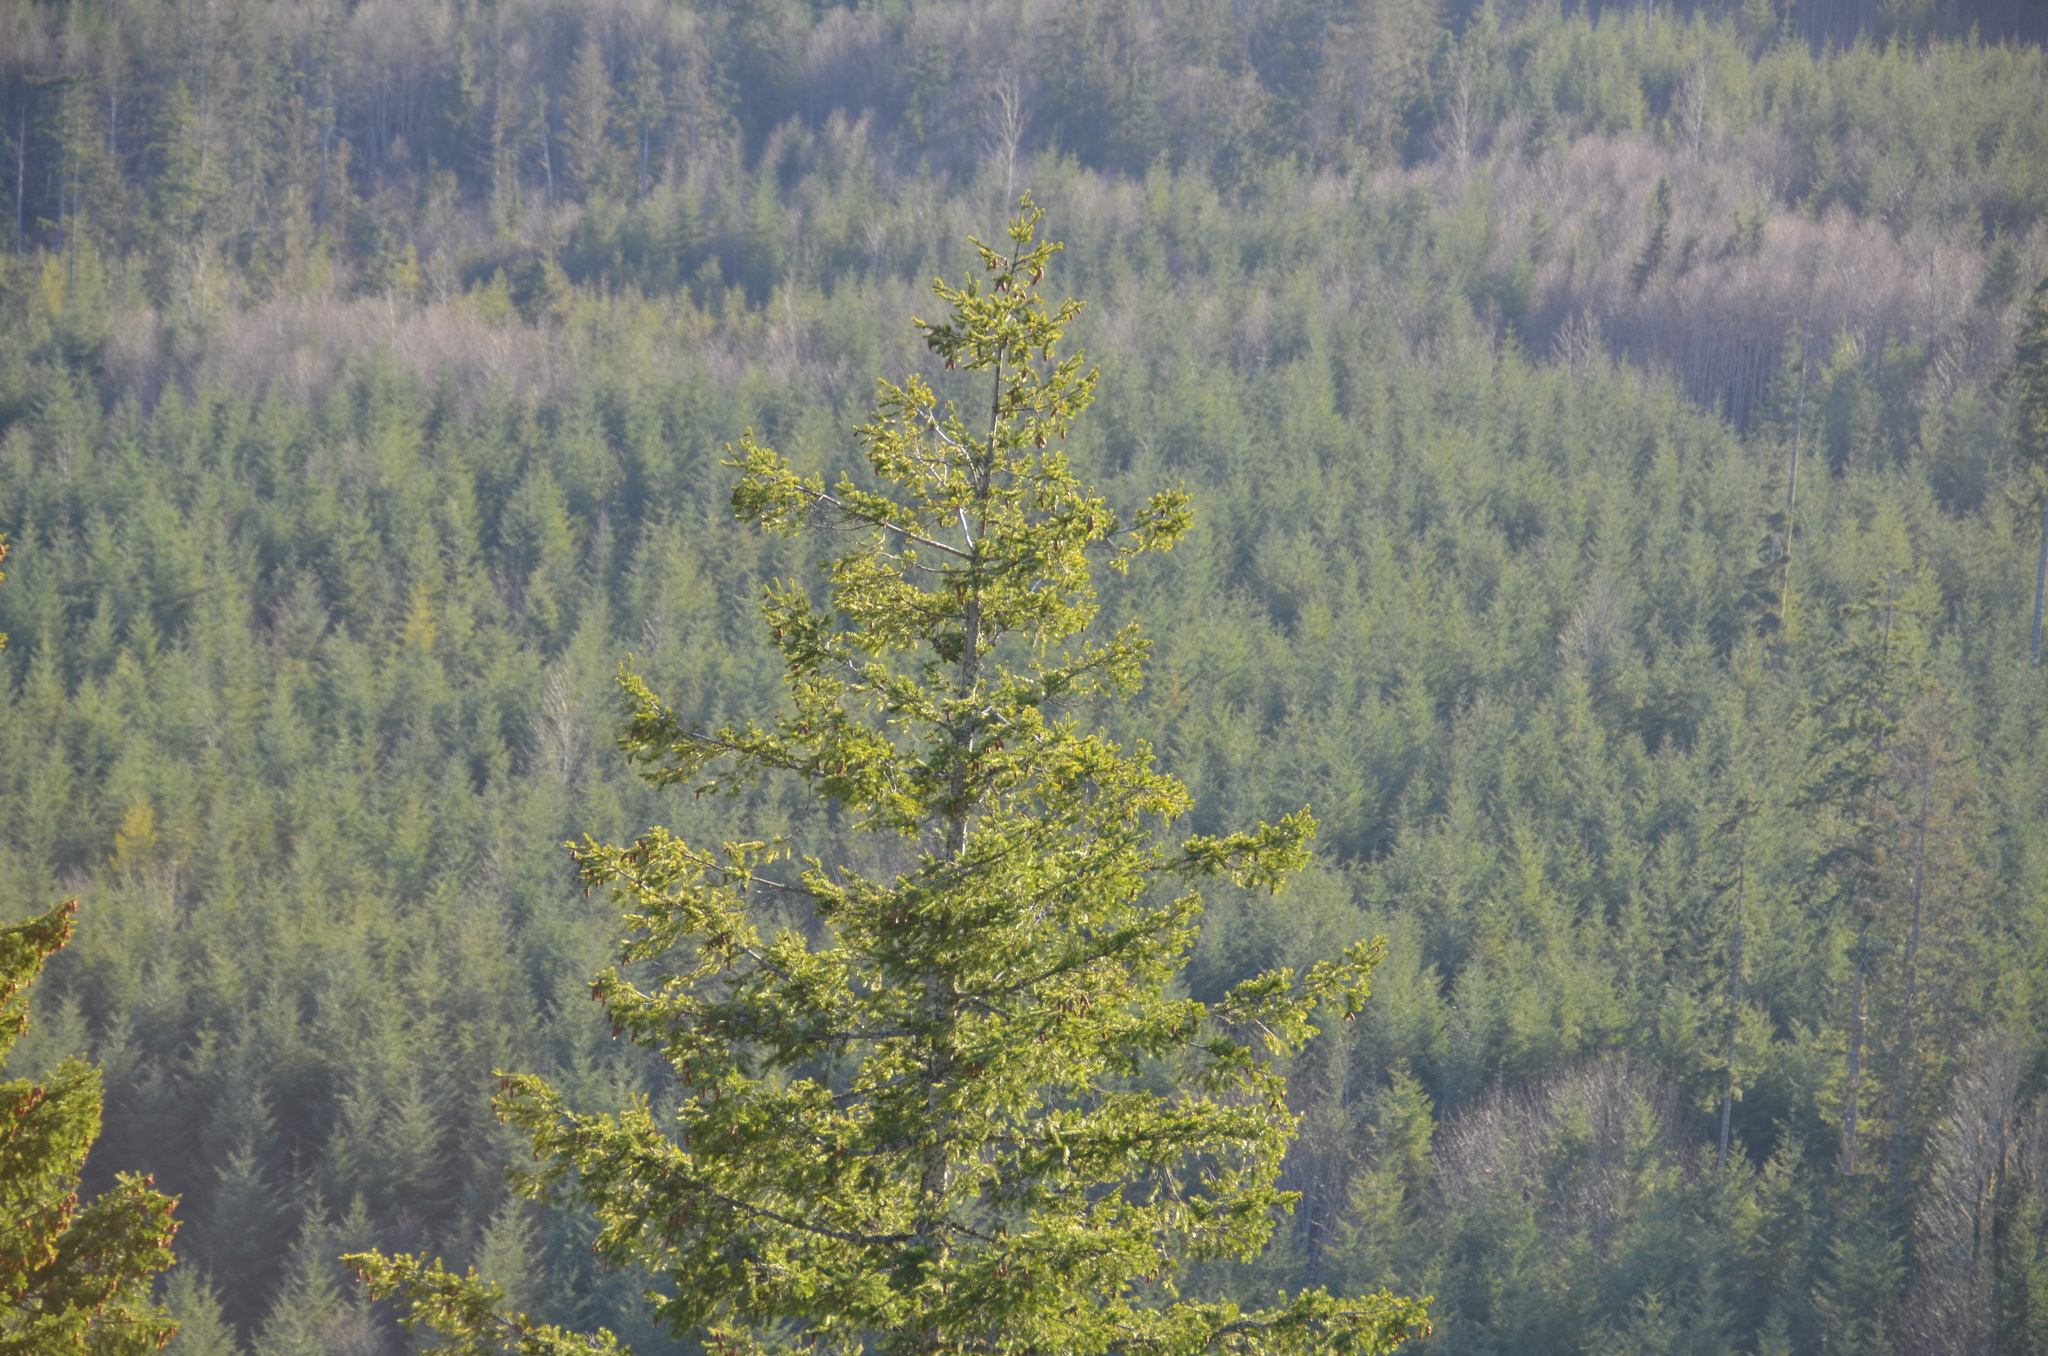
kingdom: Plantae
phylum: Tracheophyta
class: Pinopsida
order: Pinales
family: Pinaceae
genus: Pseudotsuga
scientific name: Pseudotsuga menziesii
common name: Douglas fir
